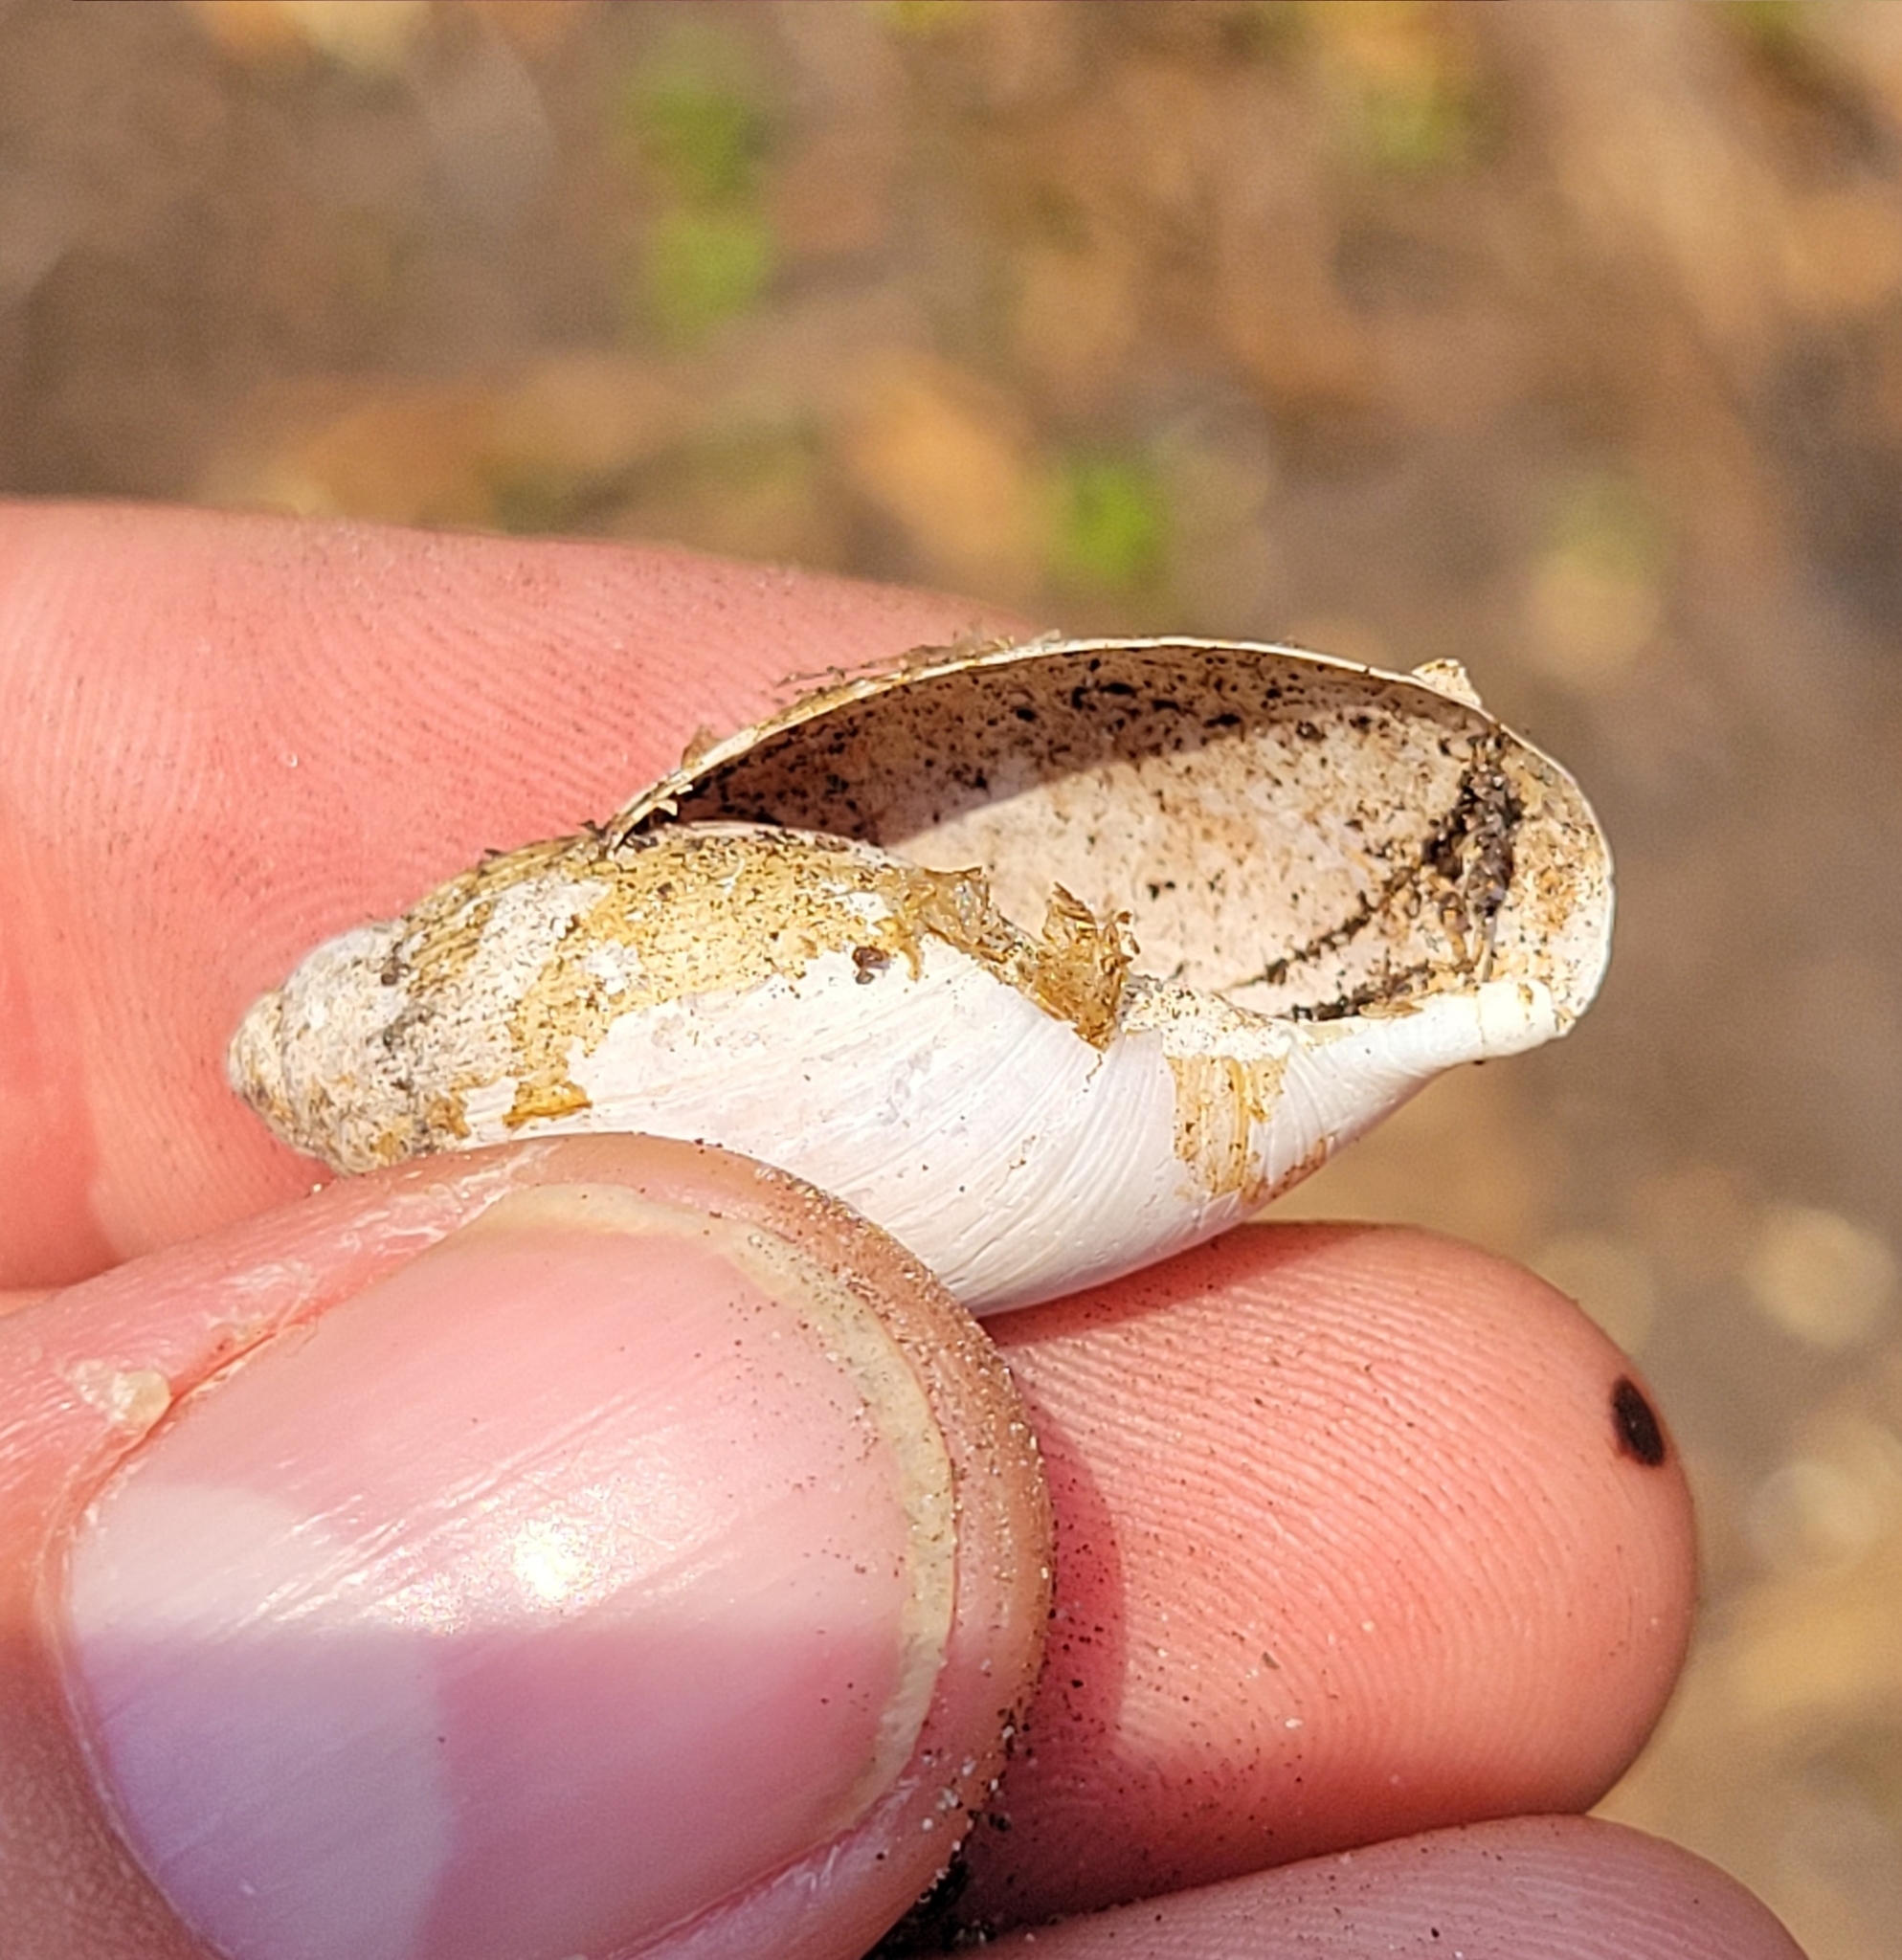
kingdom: Animalia
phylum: Mollusca
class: Gastropoda
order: Stylommatophora
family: Spiraxidae
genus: Euglandina
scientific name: Euglandina rosea
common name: Rosy wolfsnail
